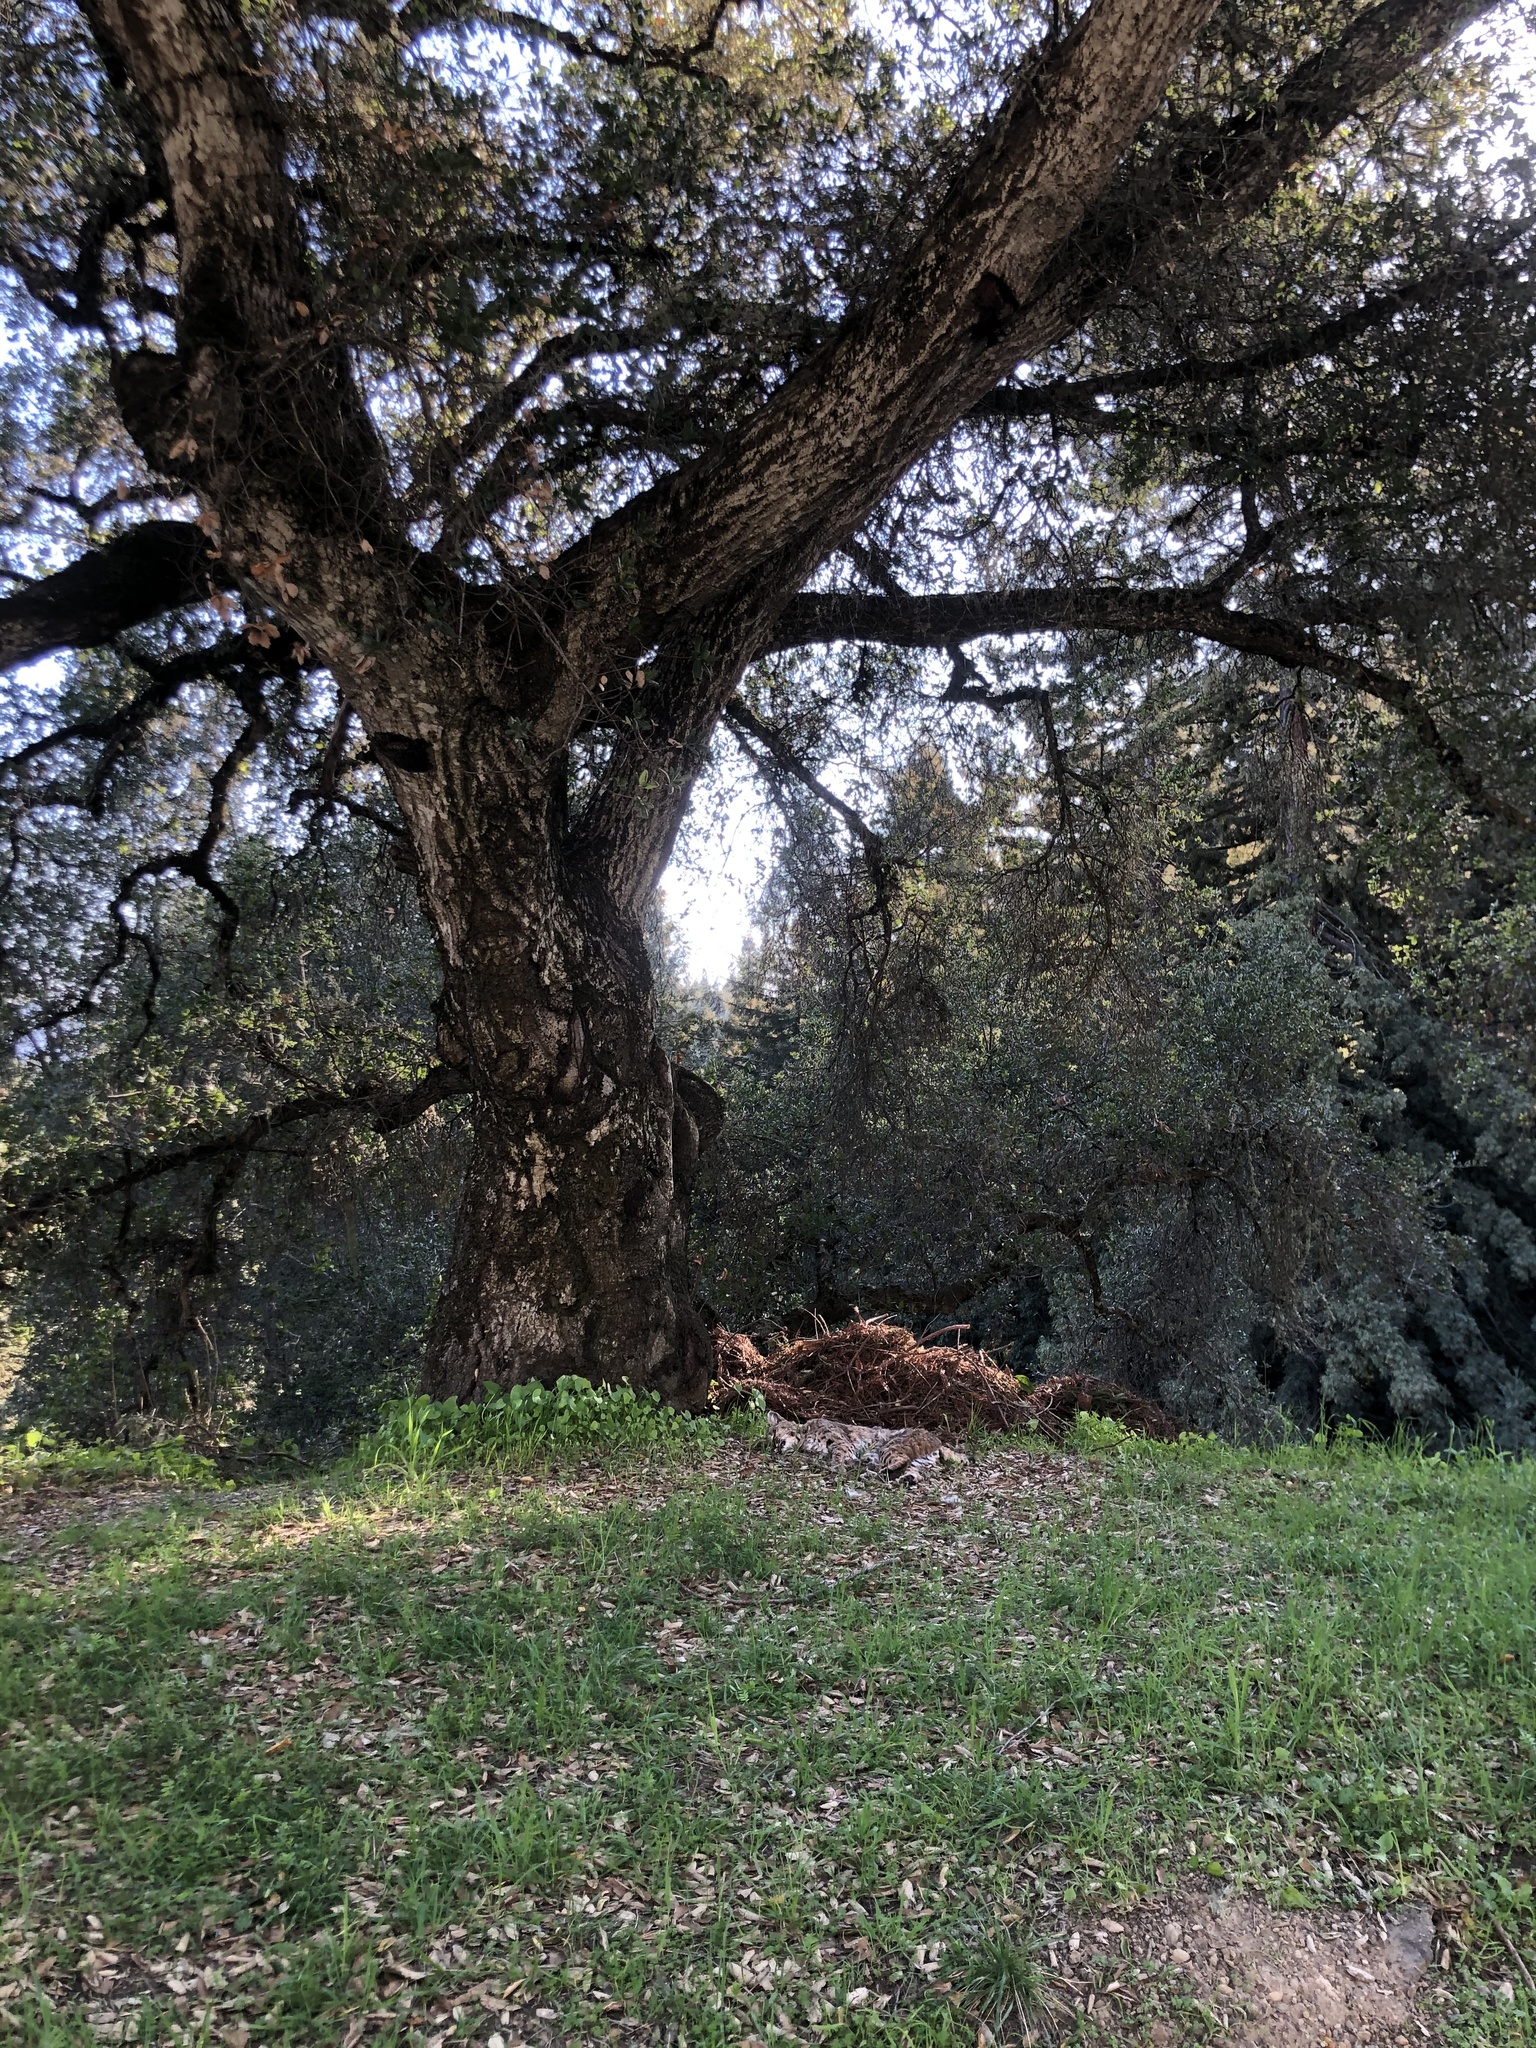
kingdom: Animalia
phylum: Chordata
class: Mammalia
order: Carnivora
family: Felidae
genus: Lynx
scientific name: Lynx rufus
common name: Bobcat
